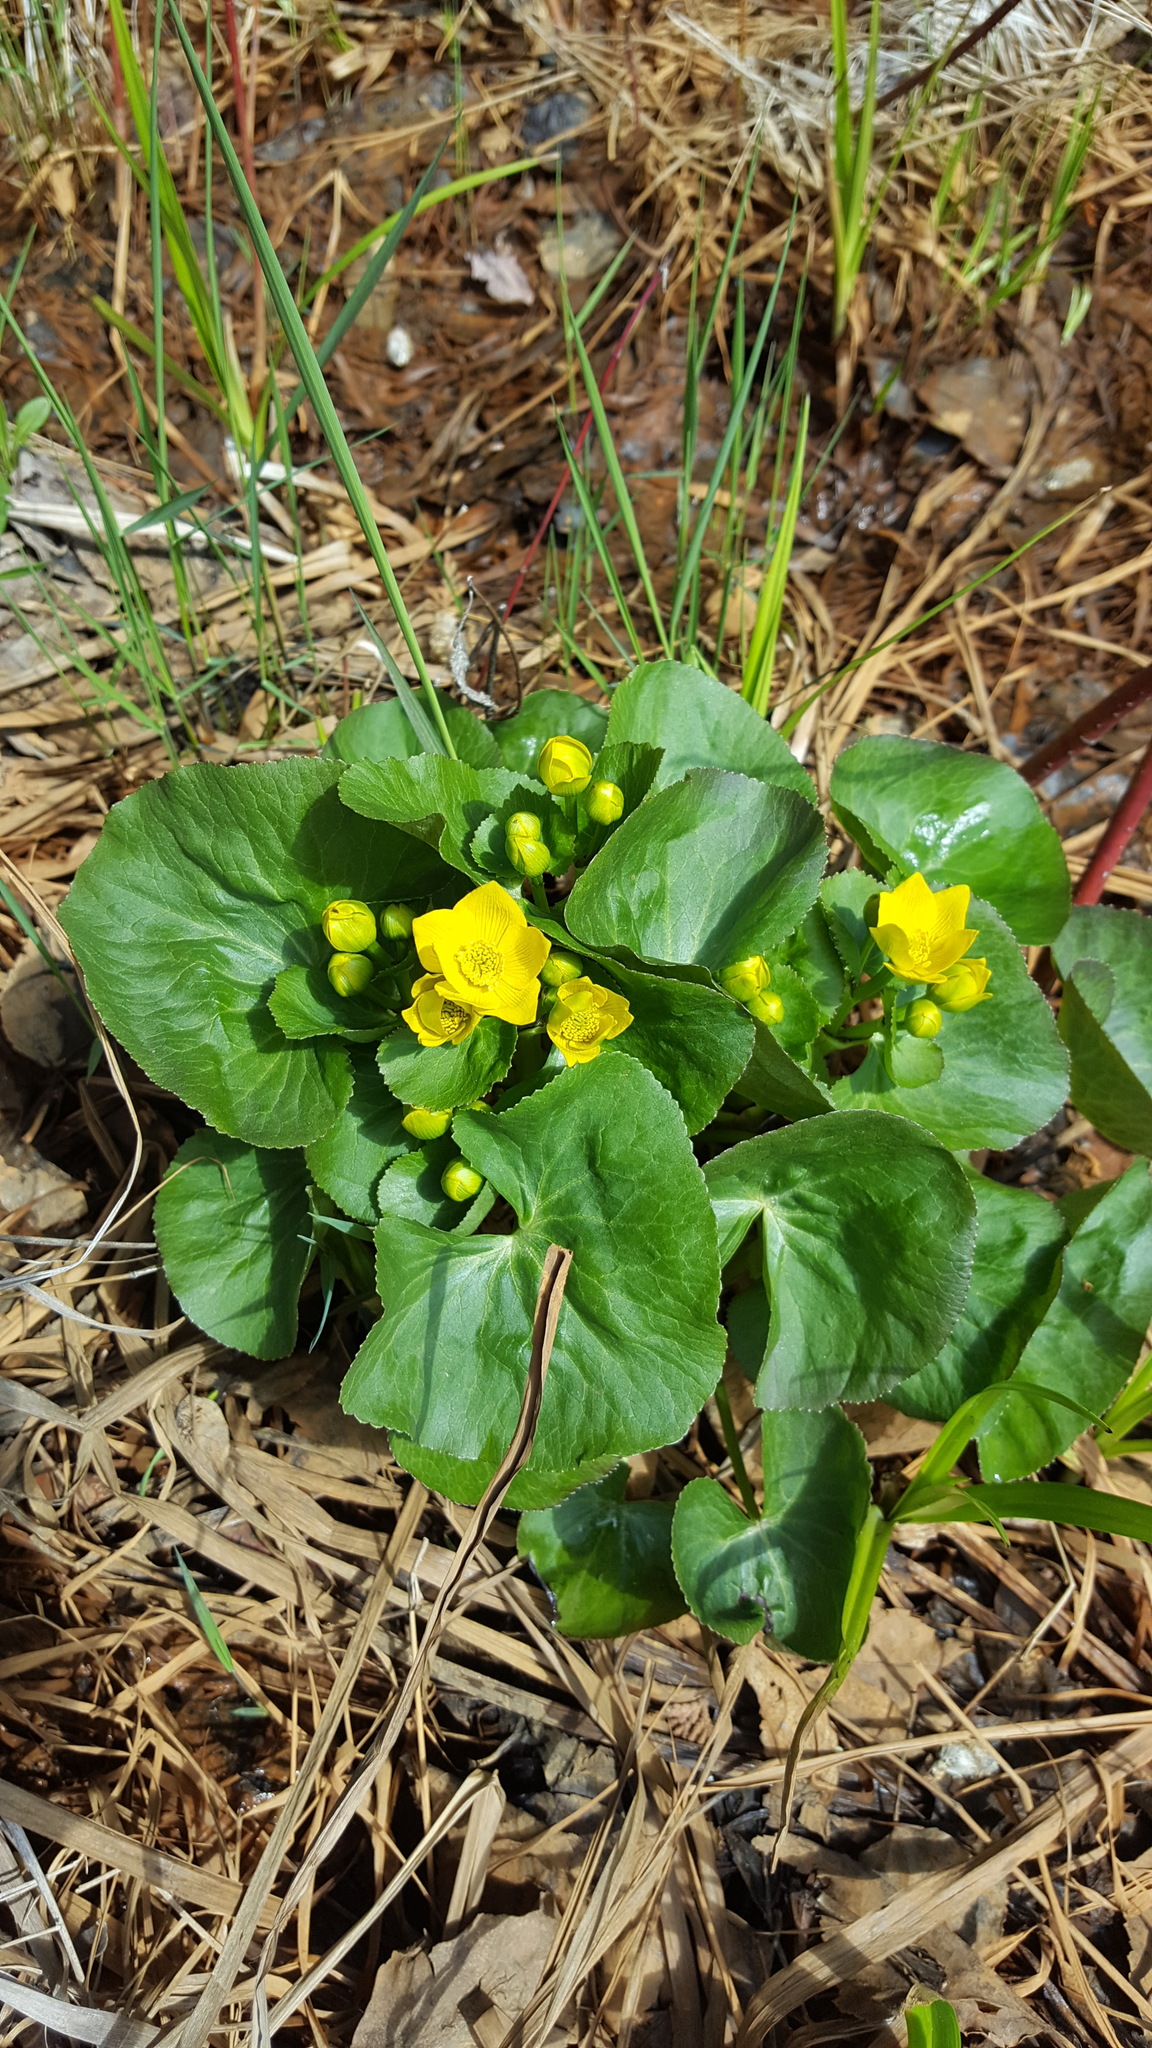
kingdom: Plantae
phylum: Tracheophyta
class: Magnoliopsida
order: Ranunculales
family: Ranunculaceae
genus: Caltha
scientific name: Caltha palustris
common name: Marsh marigold
